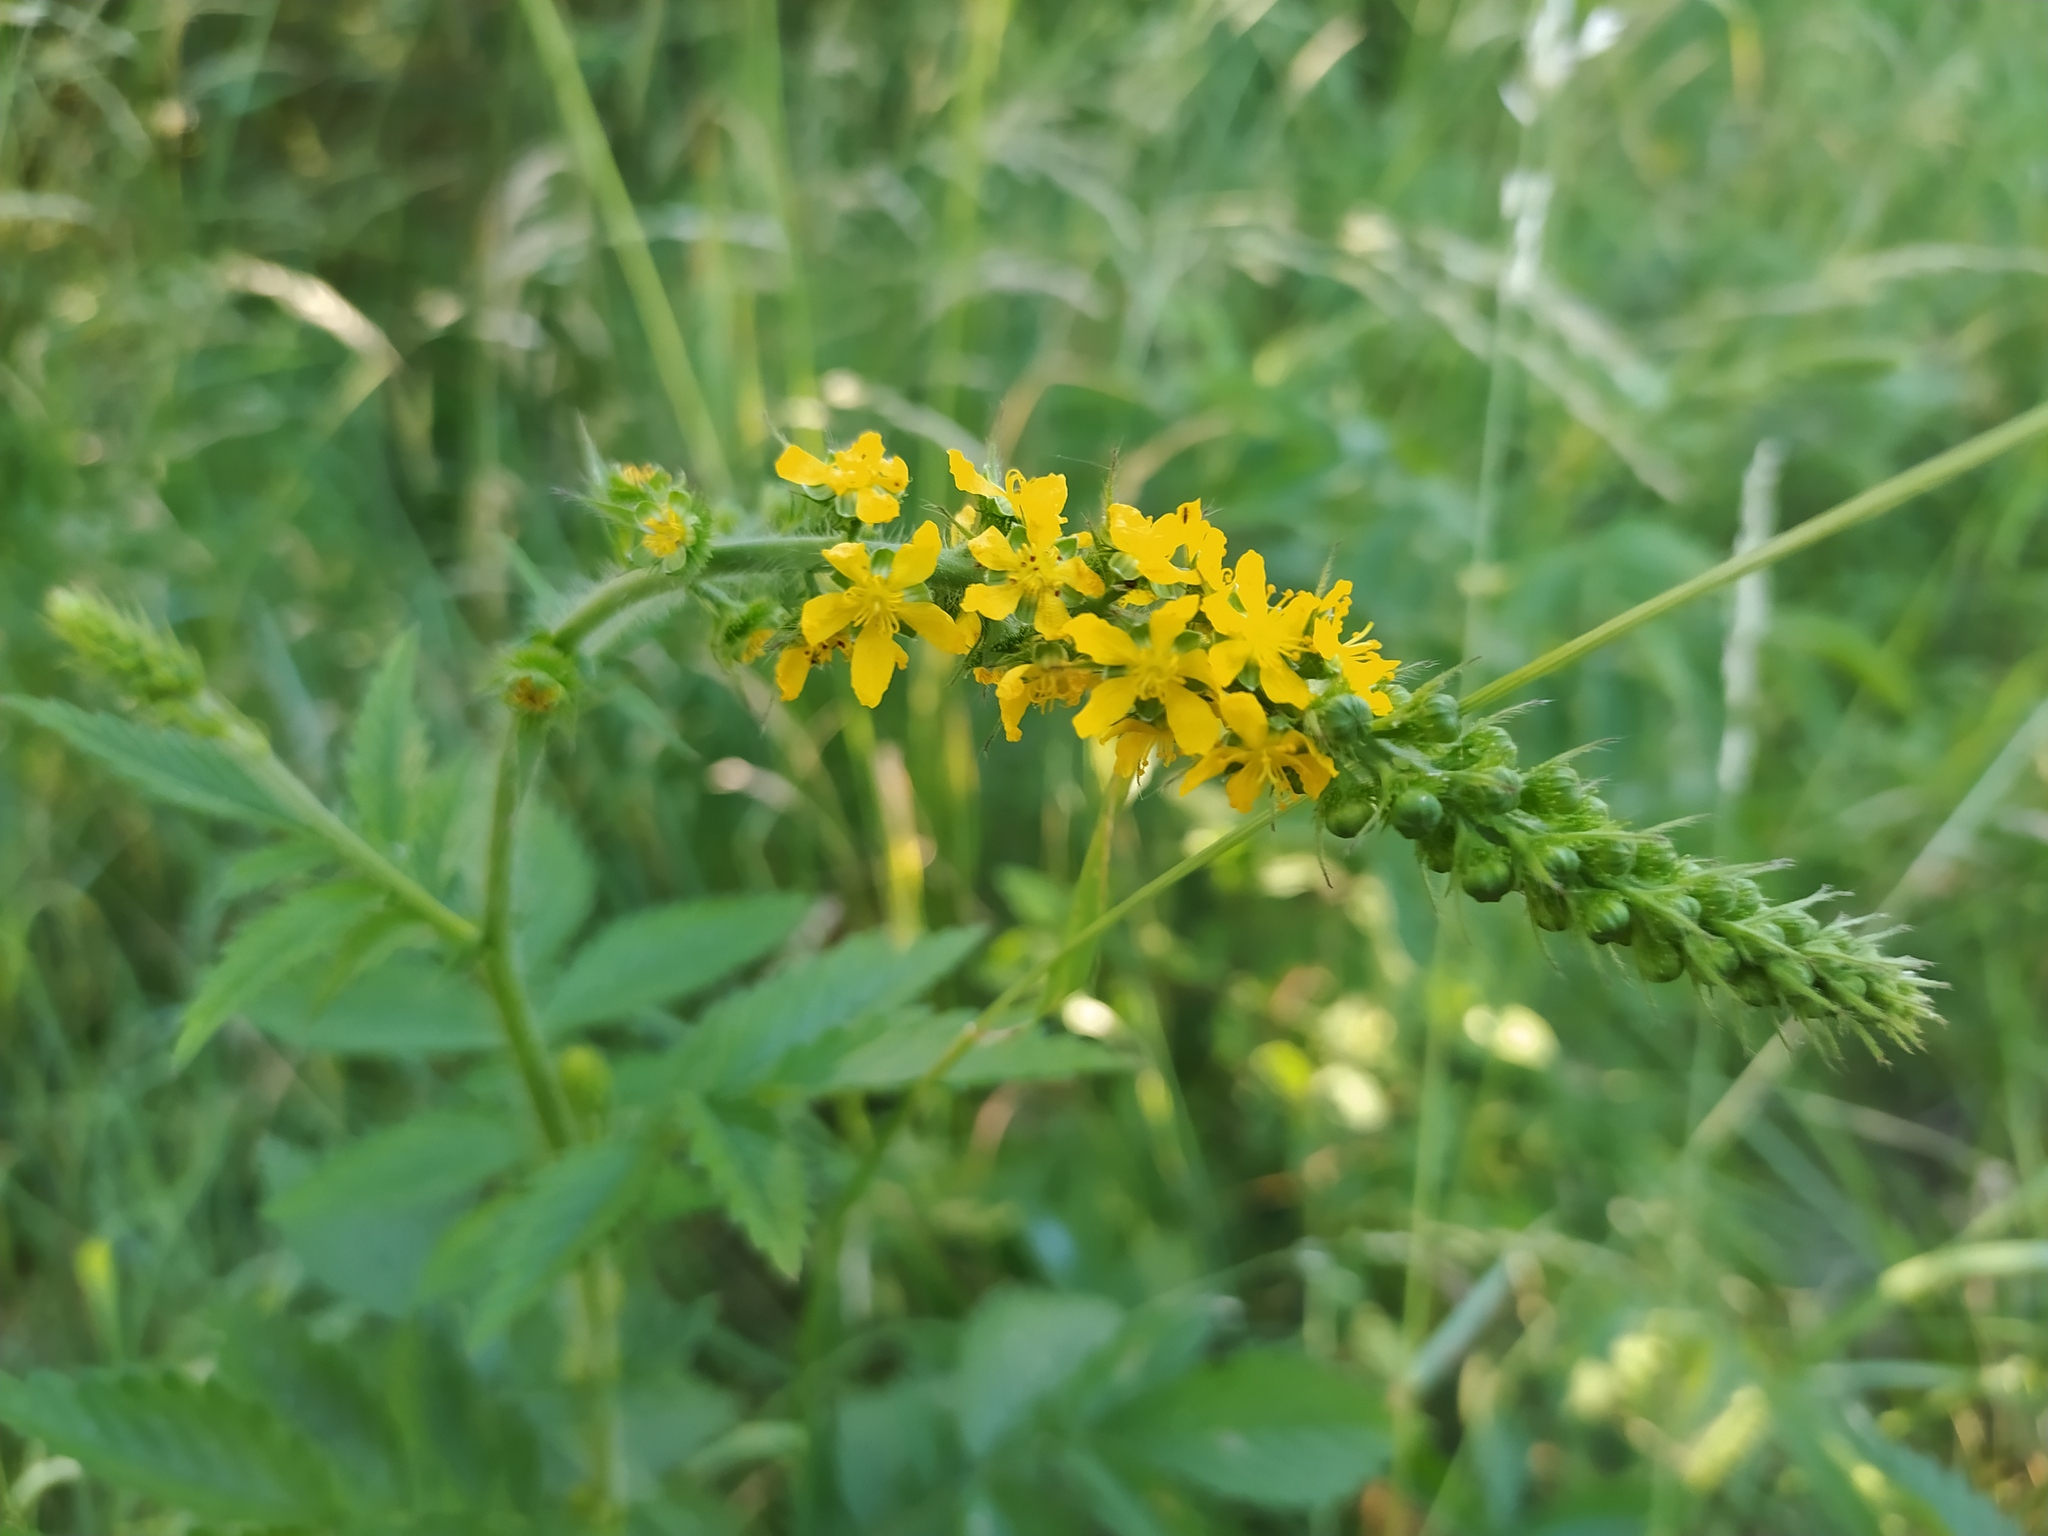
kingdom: Plantae
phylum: Tracheophyta
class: Magnoliopsida
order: Rosales
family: Rosaceae
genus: Agrimonia
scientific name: Agrimonia procera
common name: Fragrant agrimony
